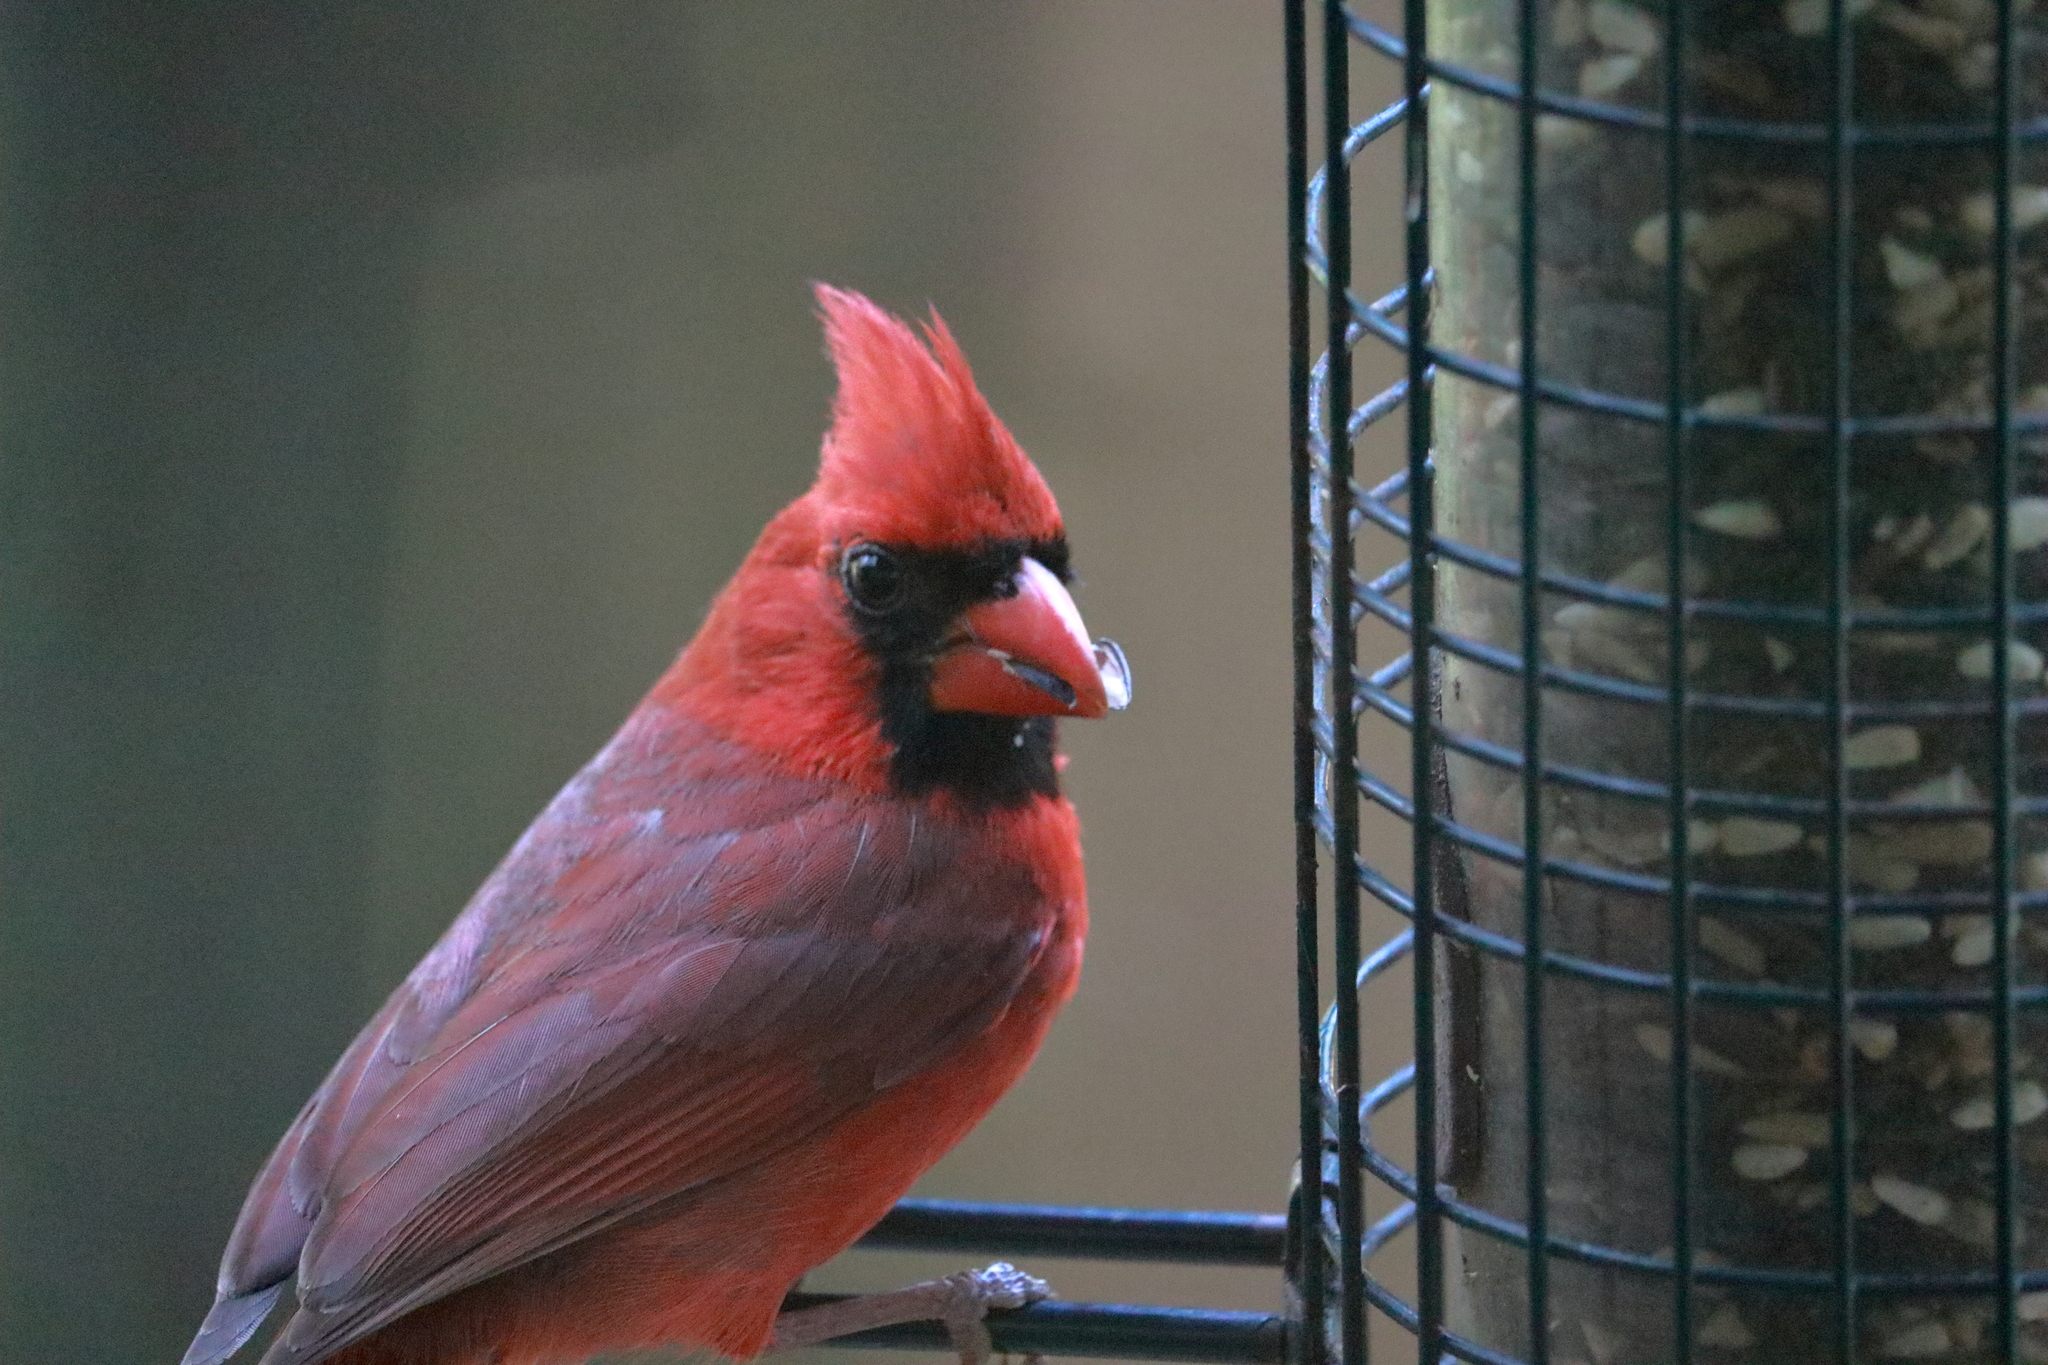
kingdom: Animalia
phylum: Chordata
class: Aves
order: Passeriformes
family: Cardinalidae
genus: Cardinalis
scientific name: Cardinalis cardinalis
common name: Northern cardinal
